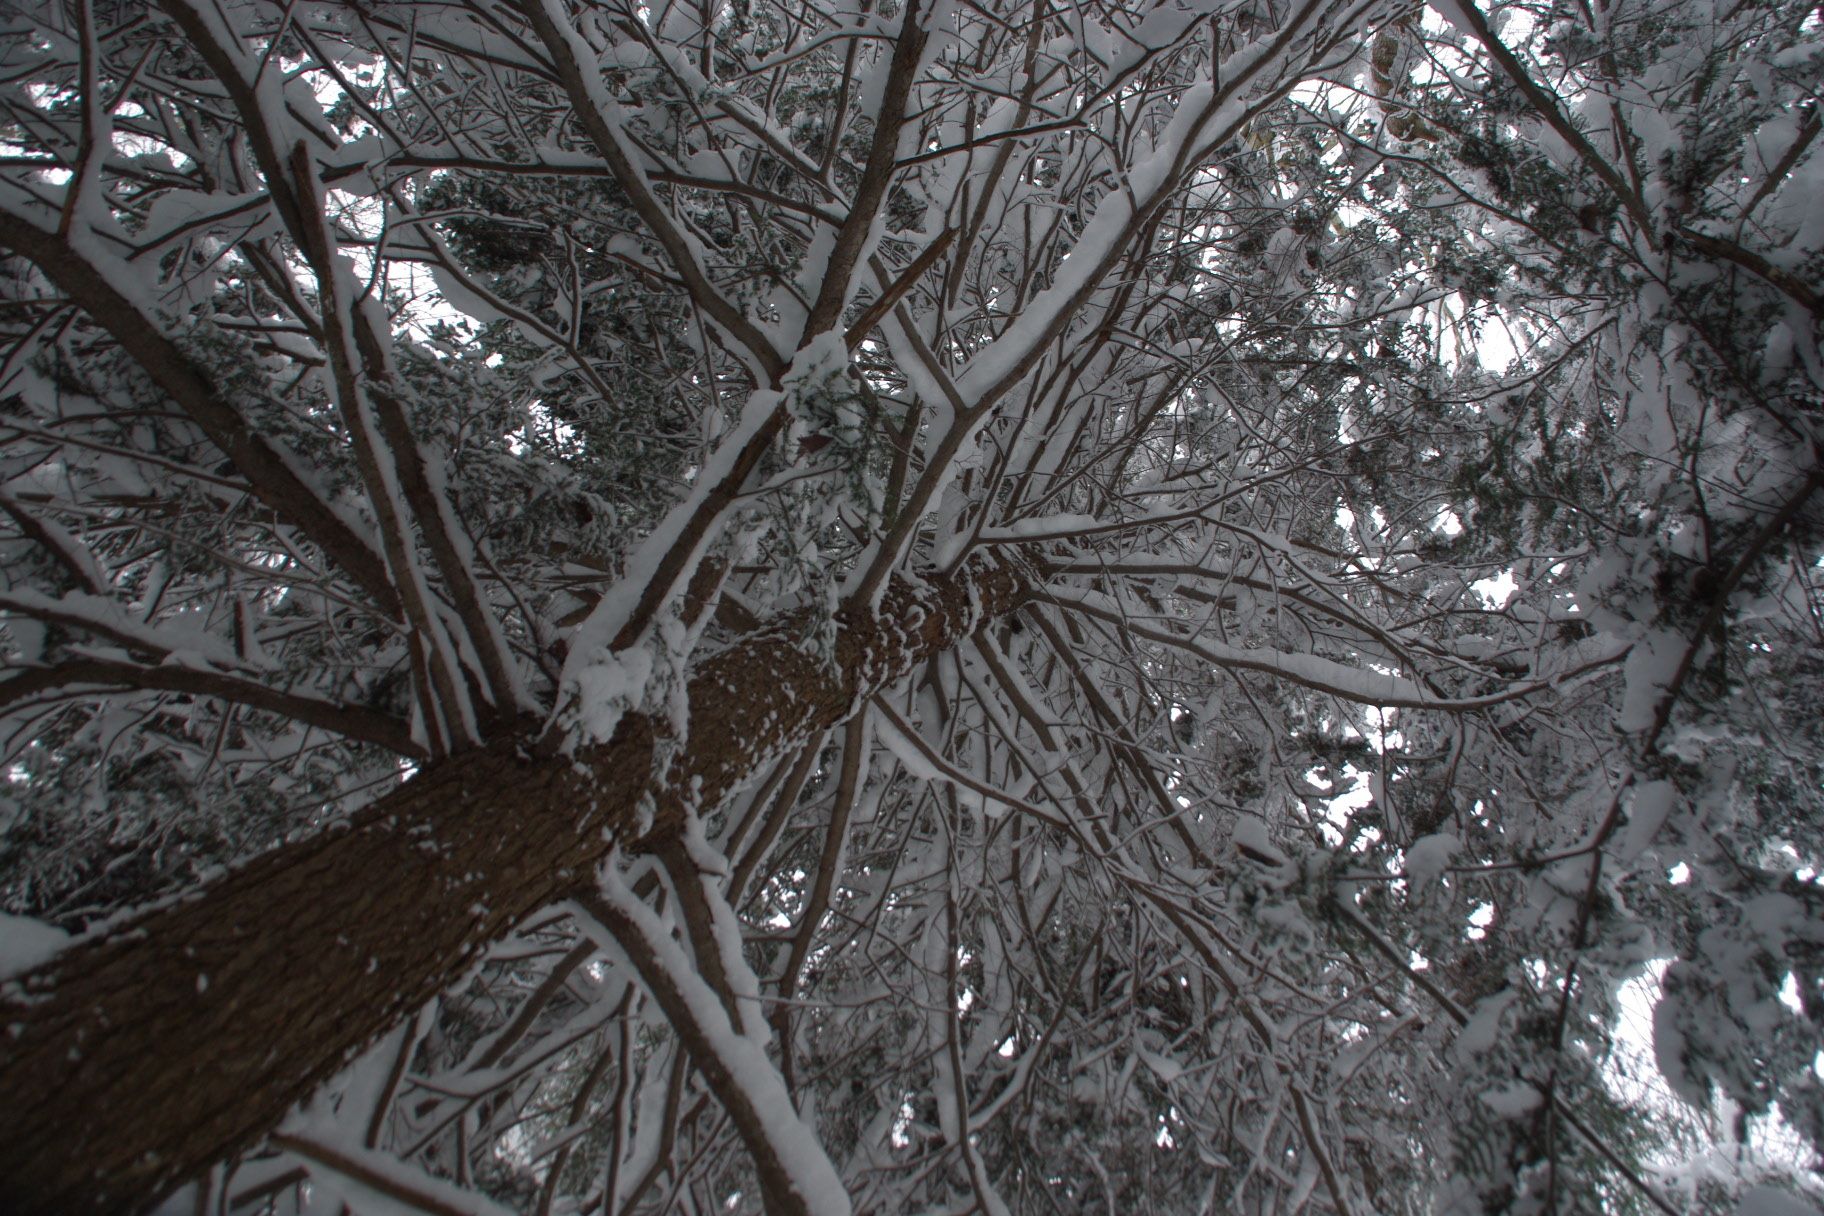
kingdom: Plantae
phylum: Tracheophyta
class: Pinopsida
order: Pinales
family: Pinaceae
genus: Tsuga
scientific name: Tsuga canadensis
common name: Eastern hemlock
